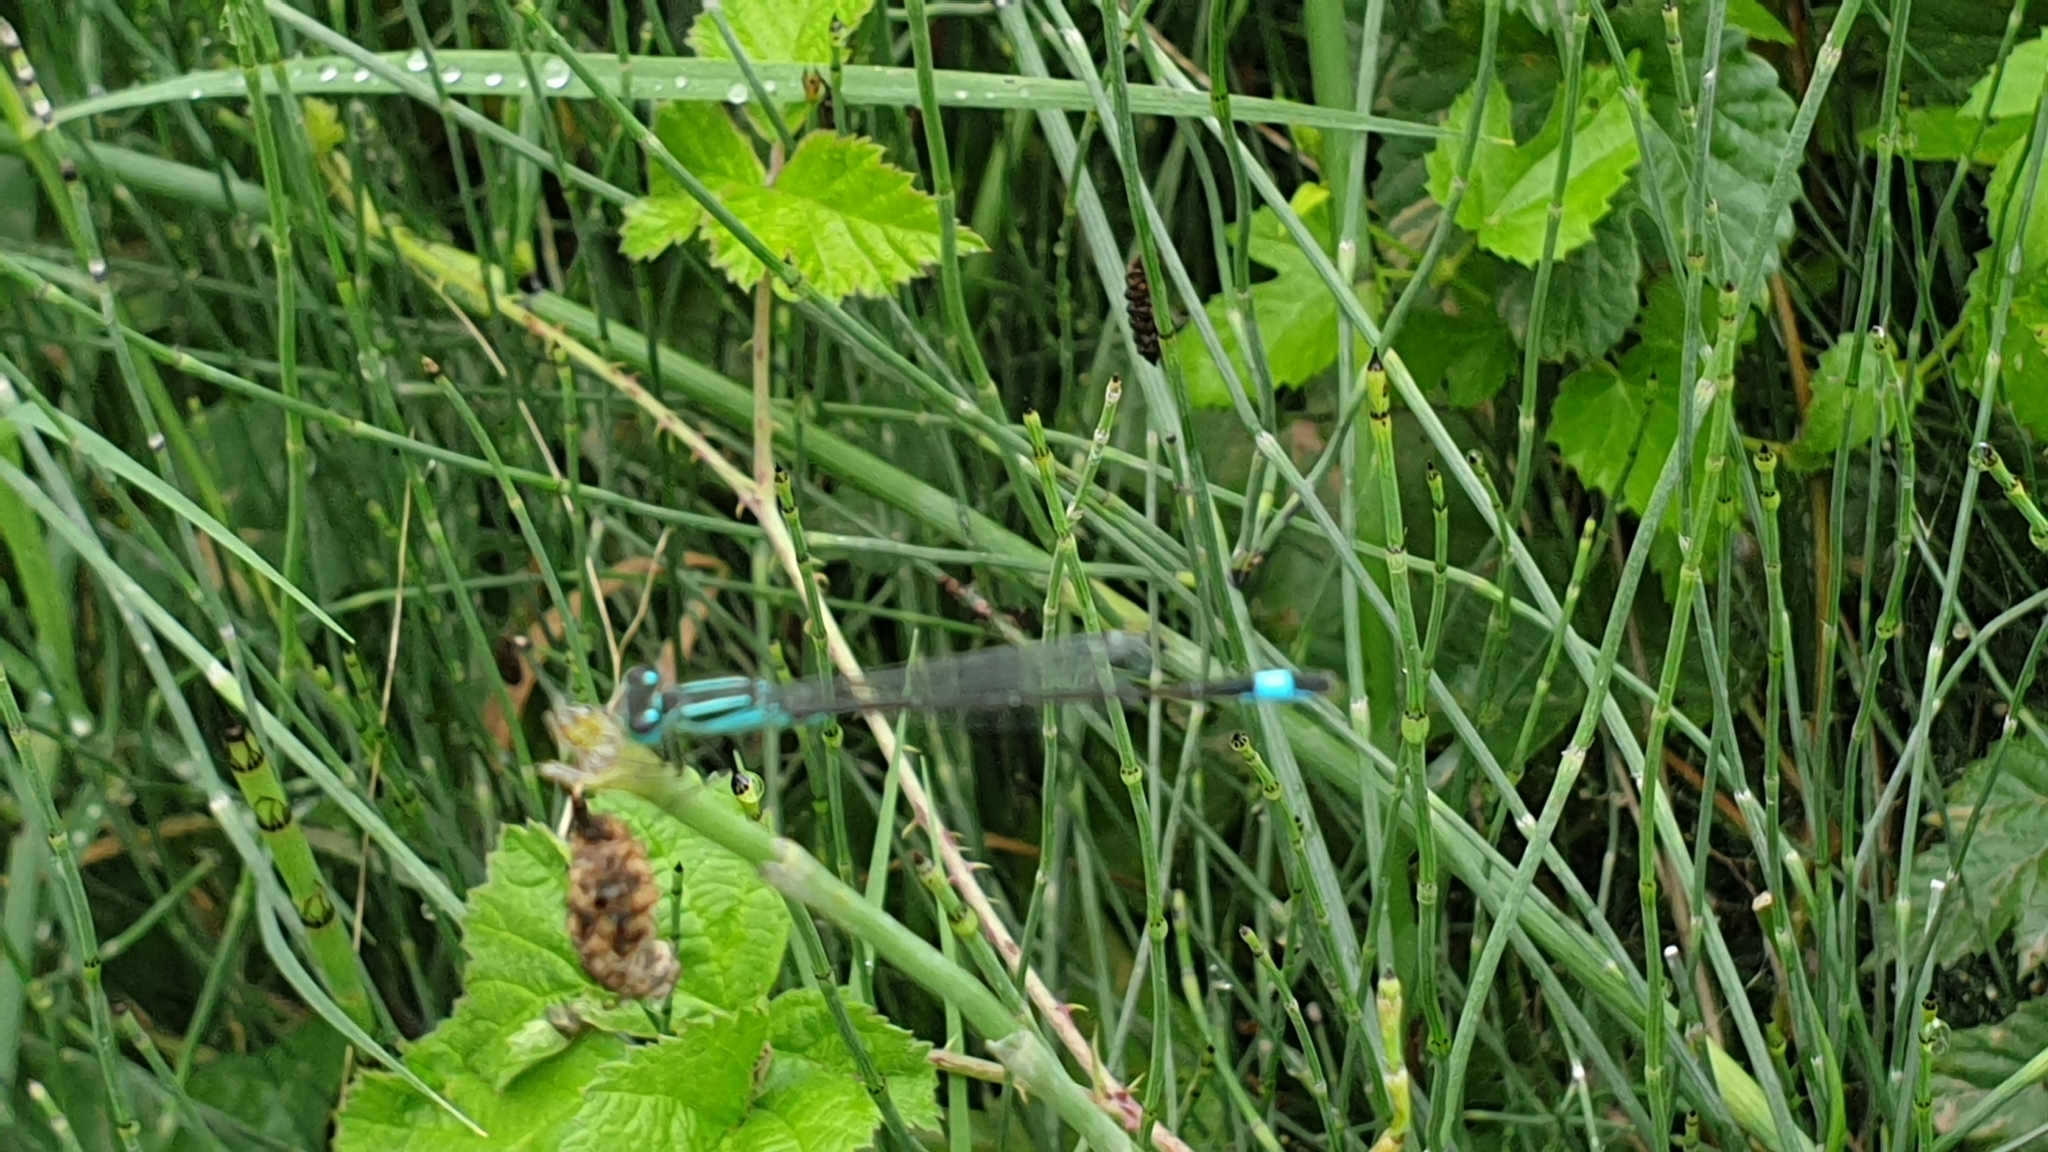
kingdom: Animalia
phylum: Arthropoda
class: Insecta
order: Odonata
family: Coenagrionidae
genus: Ischnura
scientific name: Ischnura elegans
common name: Blue-tailed damselfly
